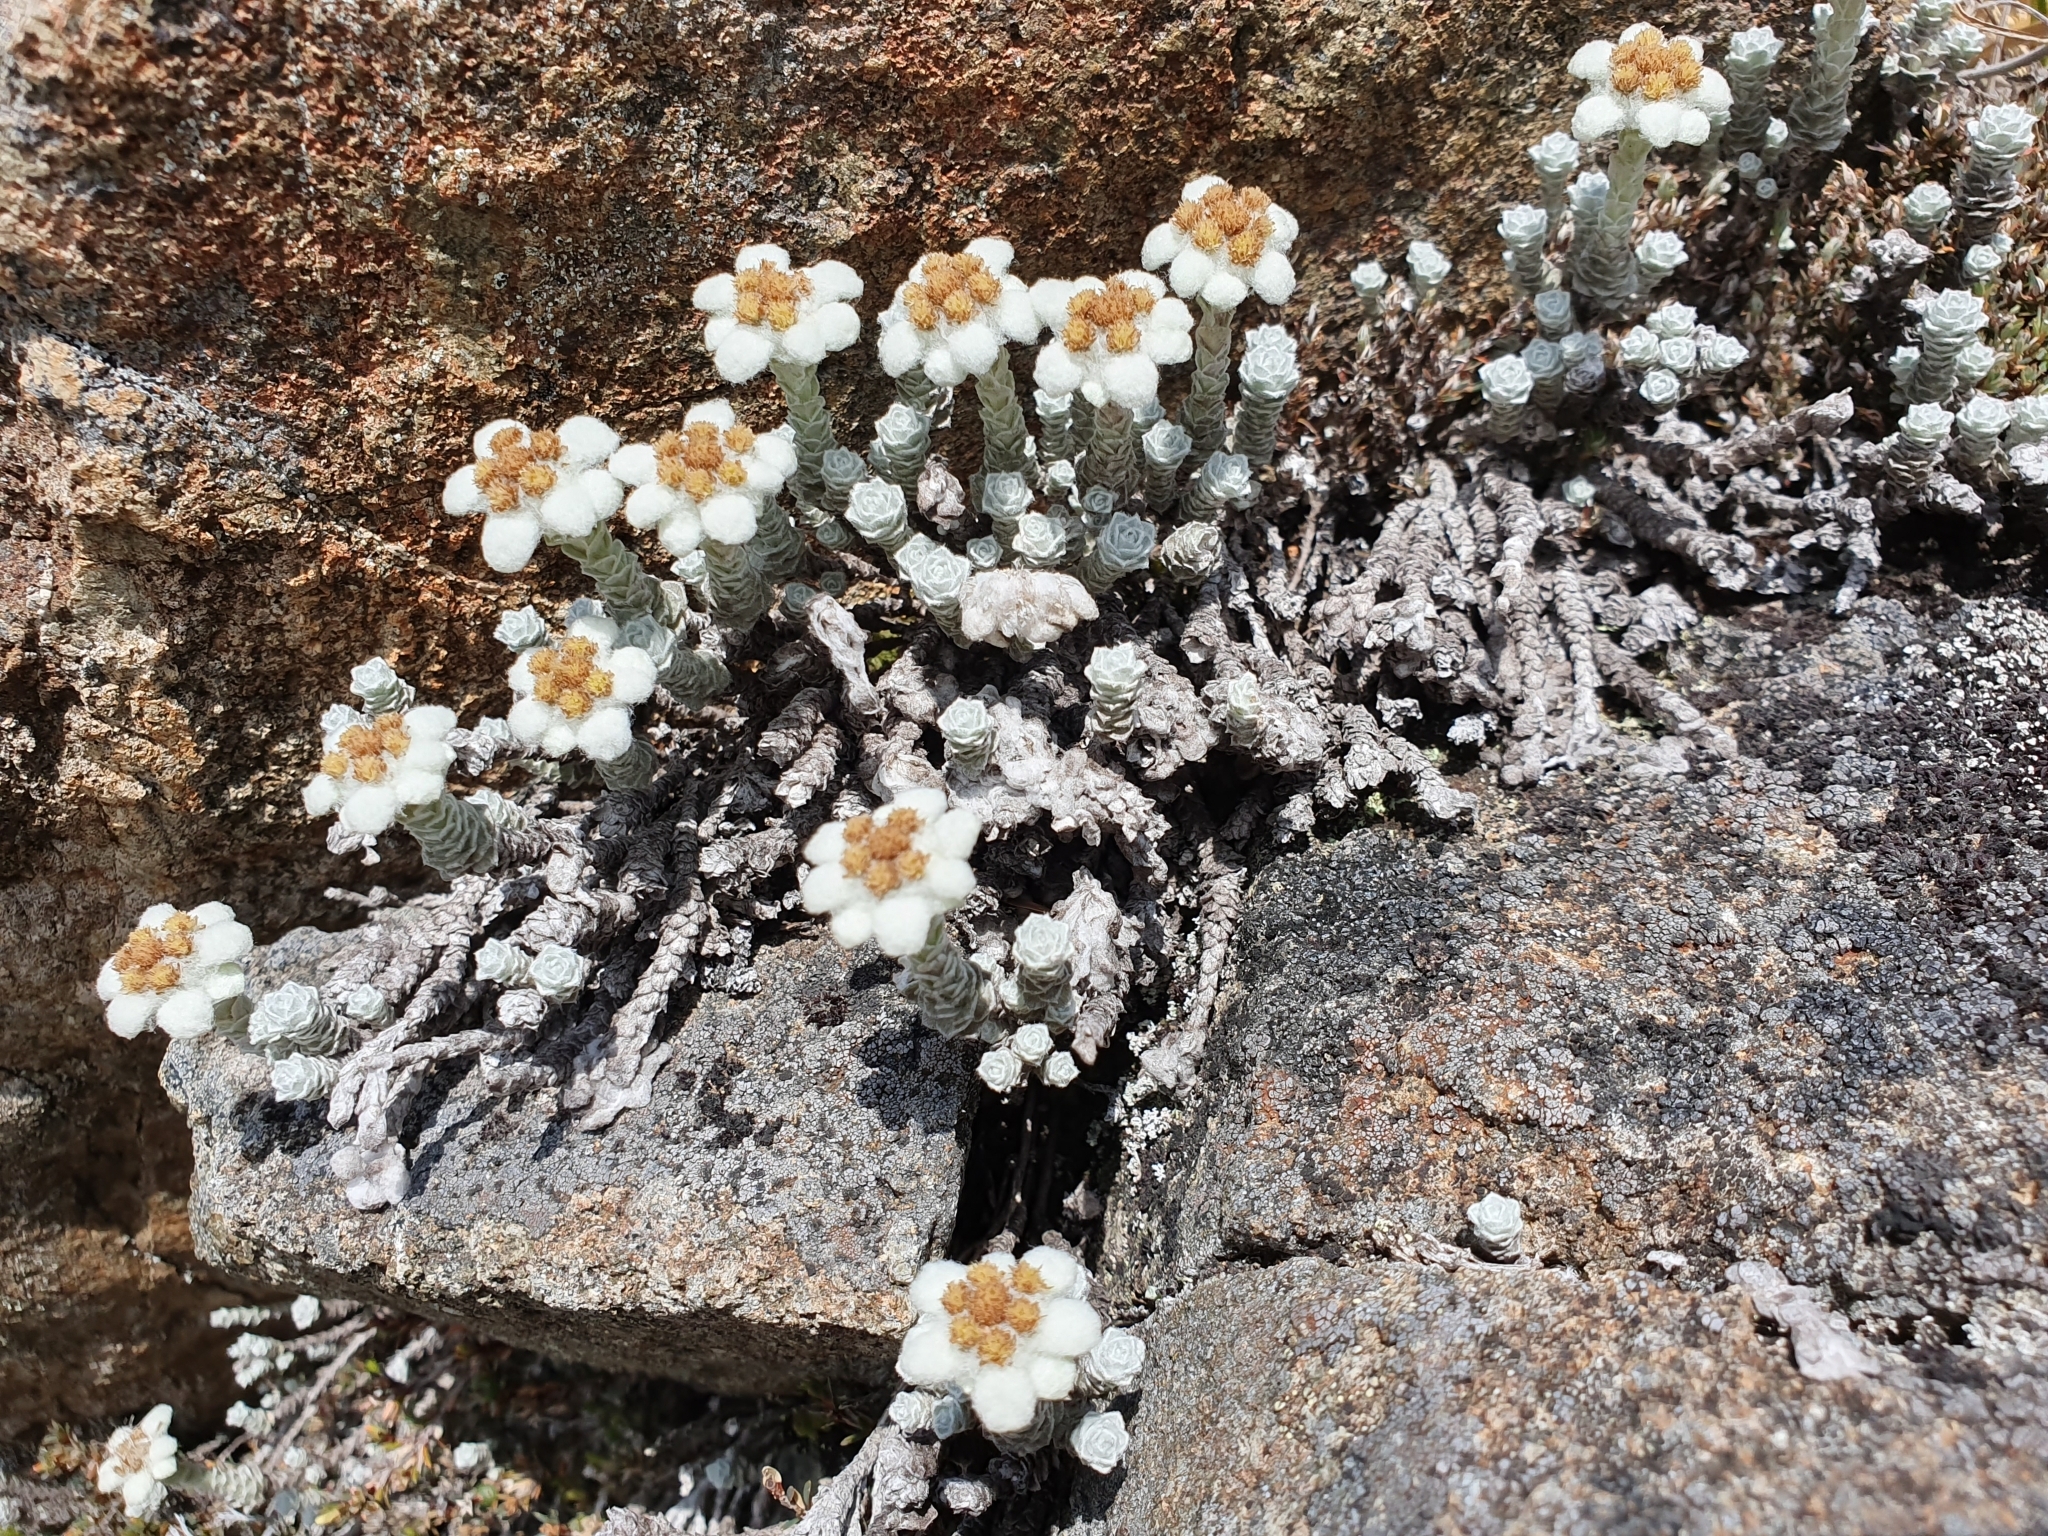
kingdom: Plantae
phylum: Tracheophyta
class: Magnoliopsida
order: Asterales
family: Asteraceae
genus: Leucogenes
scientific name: Leucogenes grandiceps
